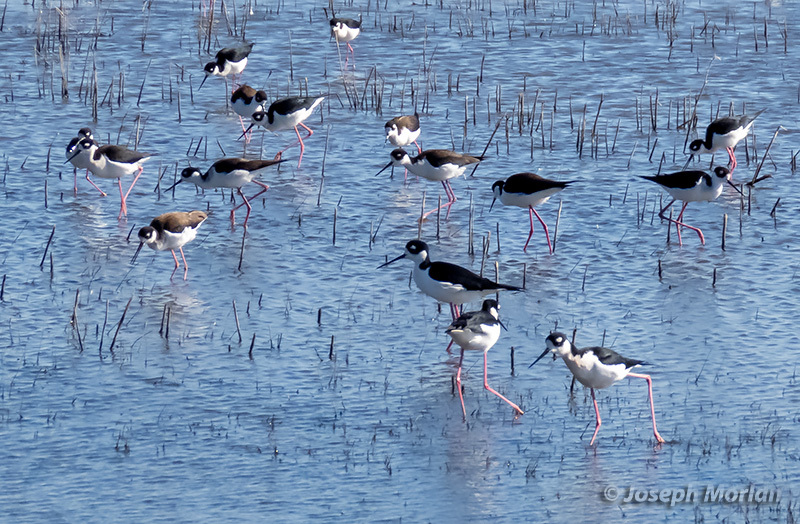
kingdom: Animalia
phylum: Chordata
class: Aves
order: Charadriiformes
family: Recurvirostridae
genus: Himantopus
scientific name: Himantopus mexicanus
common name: Black-necked stilt
